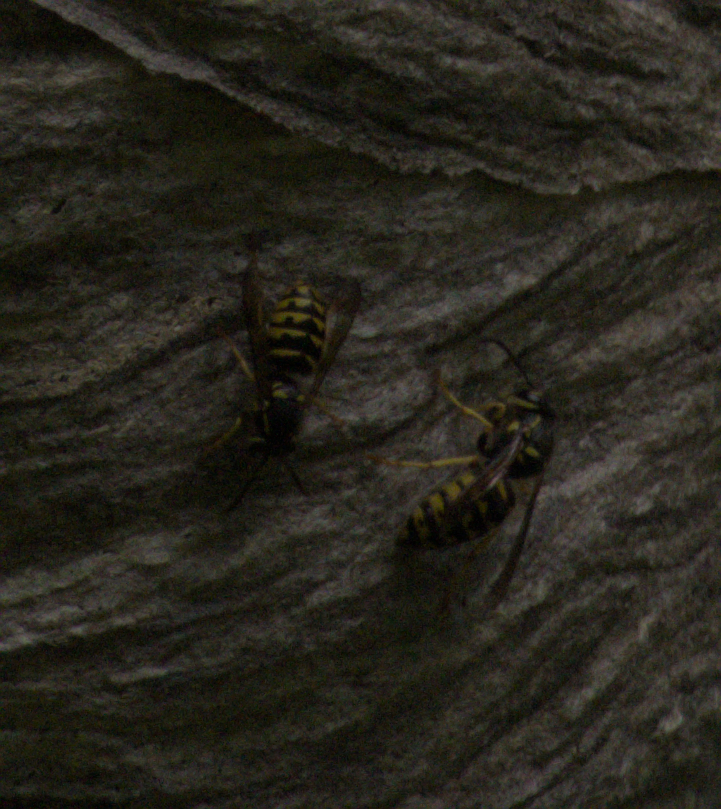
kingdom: Animalia
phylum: Arthropoda
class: Insecta
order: Hymenoptera
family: Vespidae
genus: Dolichovespula
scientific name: Dolichovespula arenaria
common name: Aerial yellowjacket
